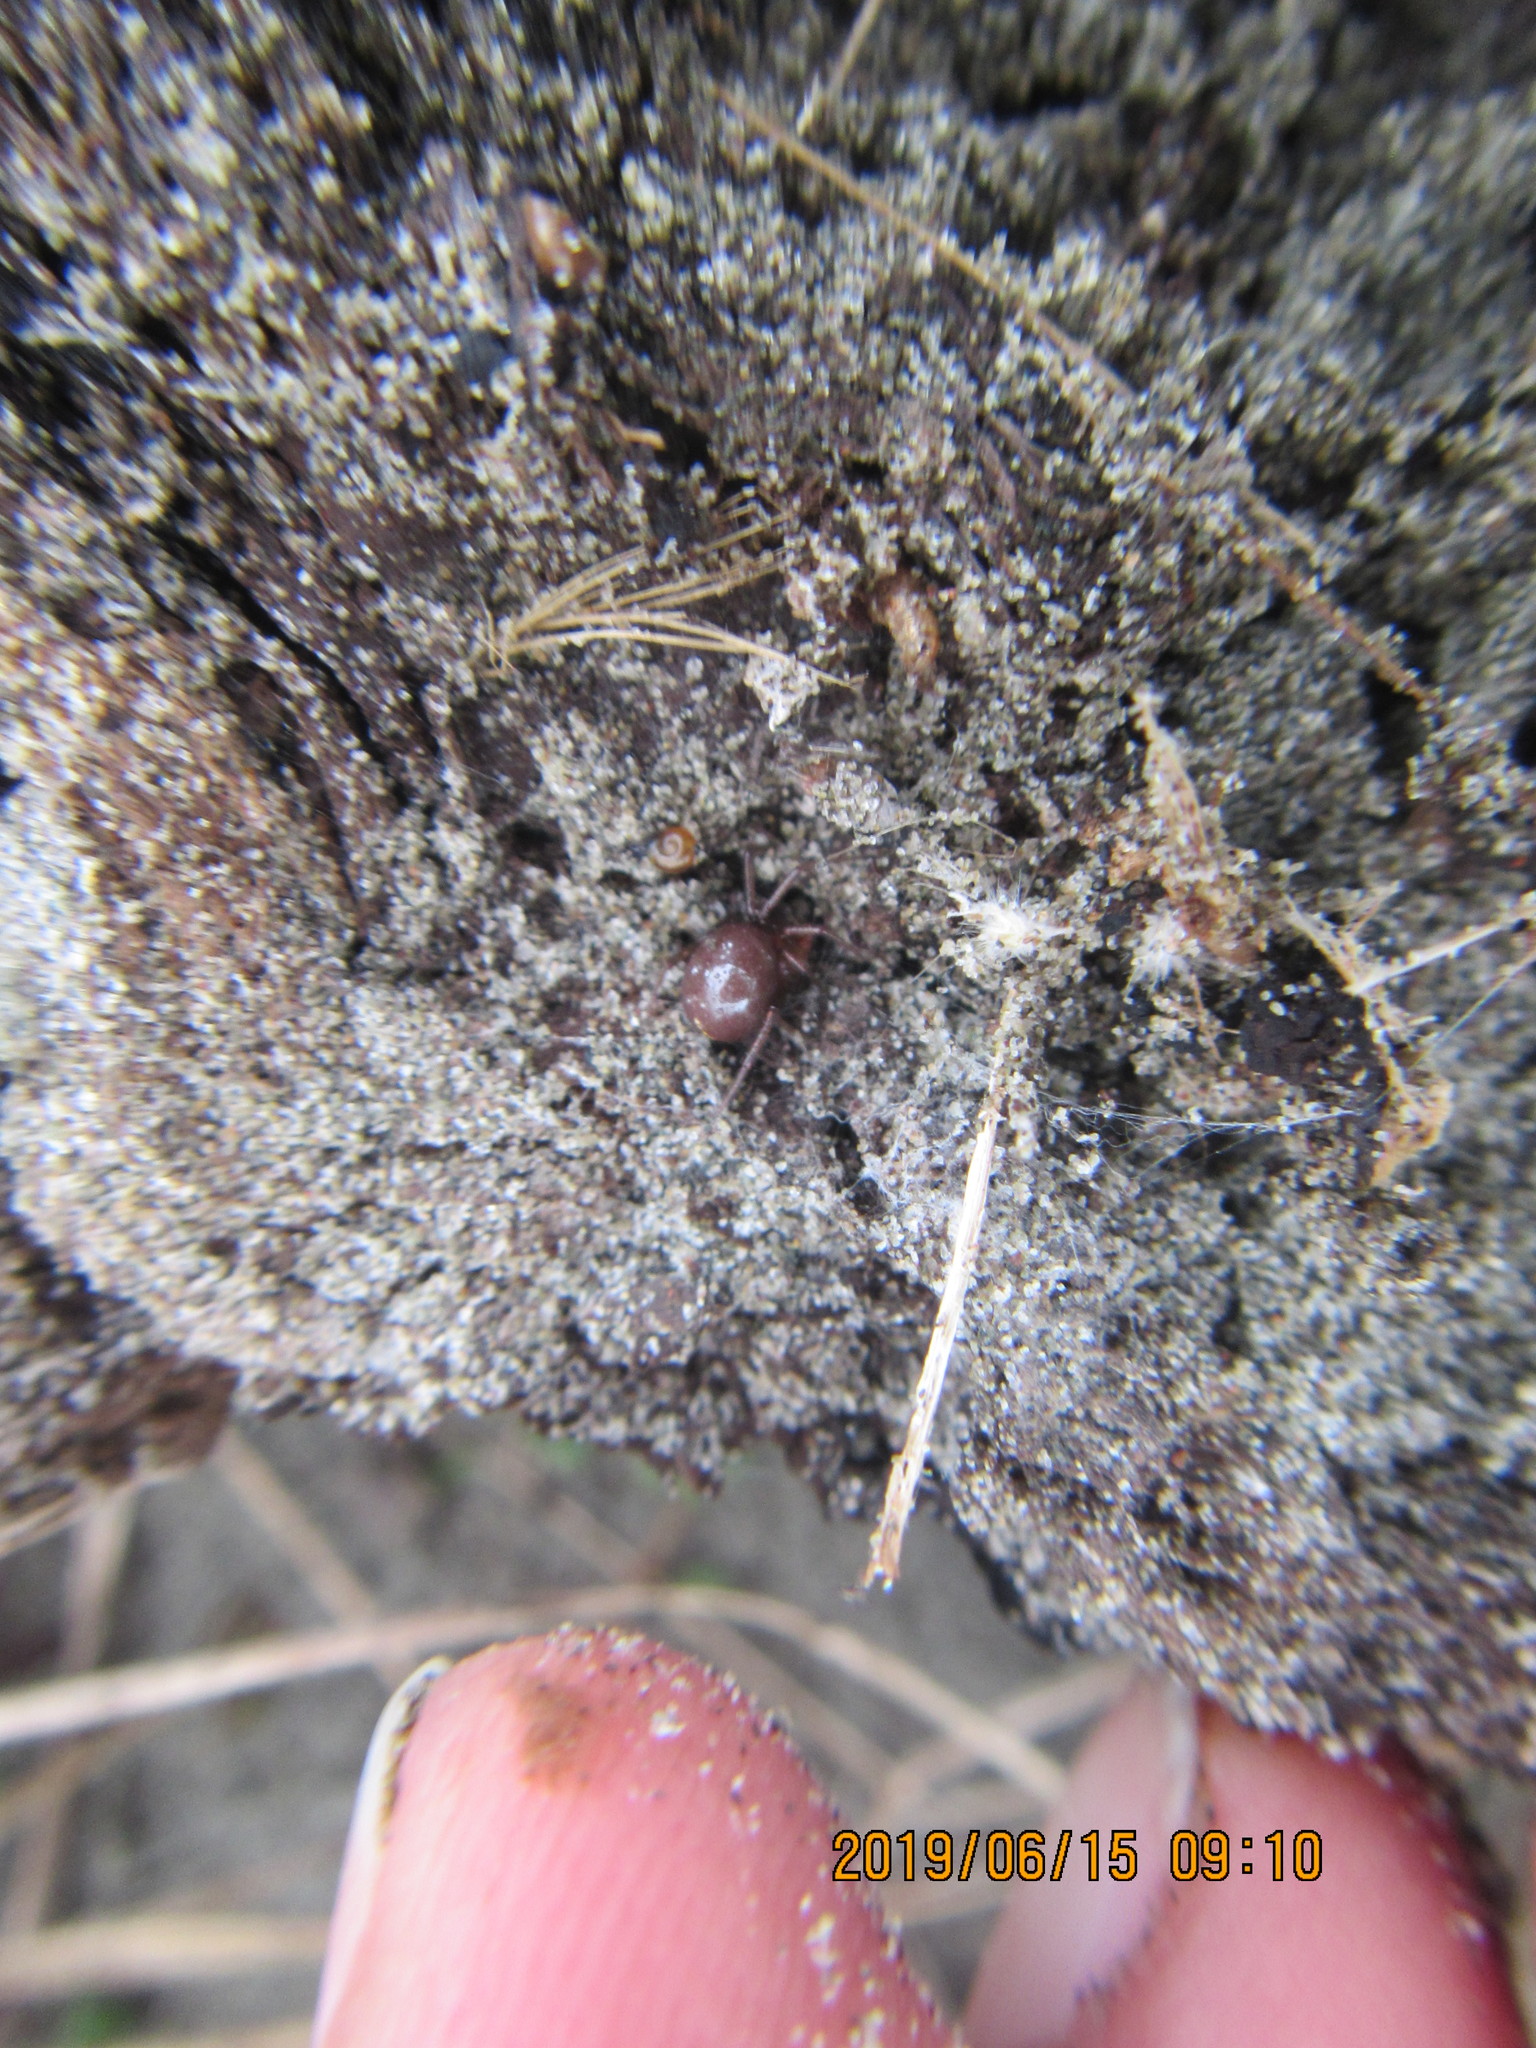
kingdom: Animalia
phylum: Arthropoda
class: Arachnida
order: Araneae
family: Theridiidae
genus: Steatoda
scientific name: Steatoda capensis
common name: Cobweb weaver
